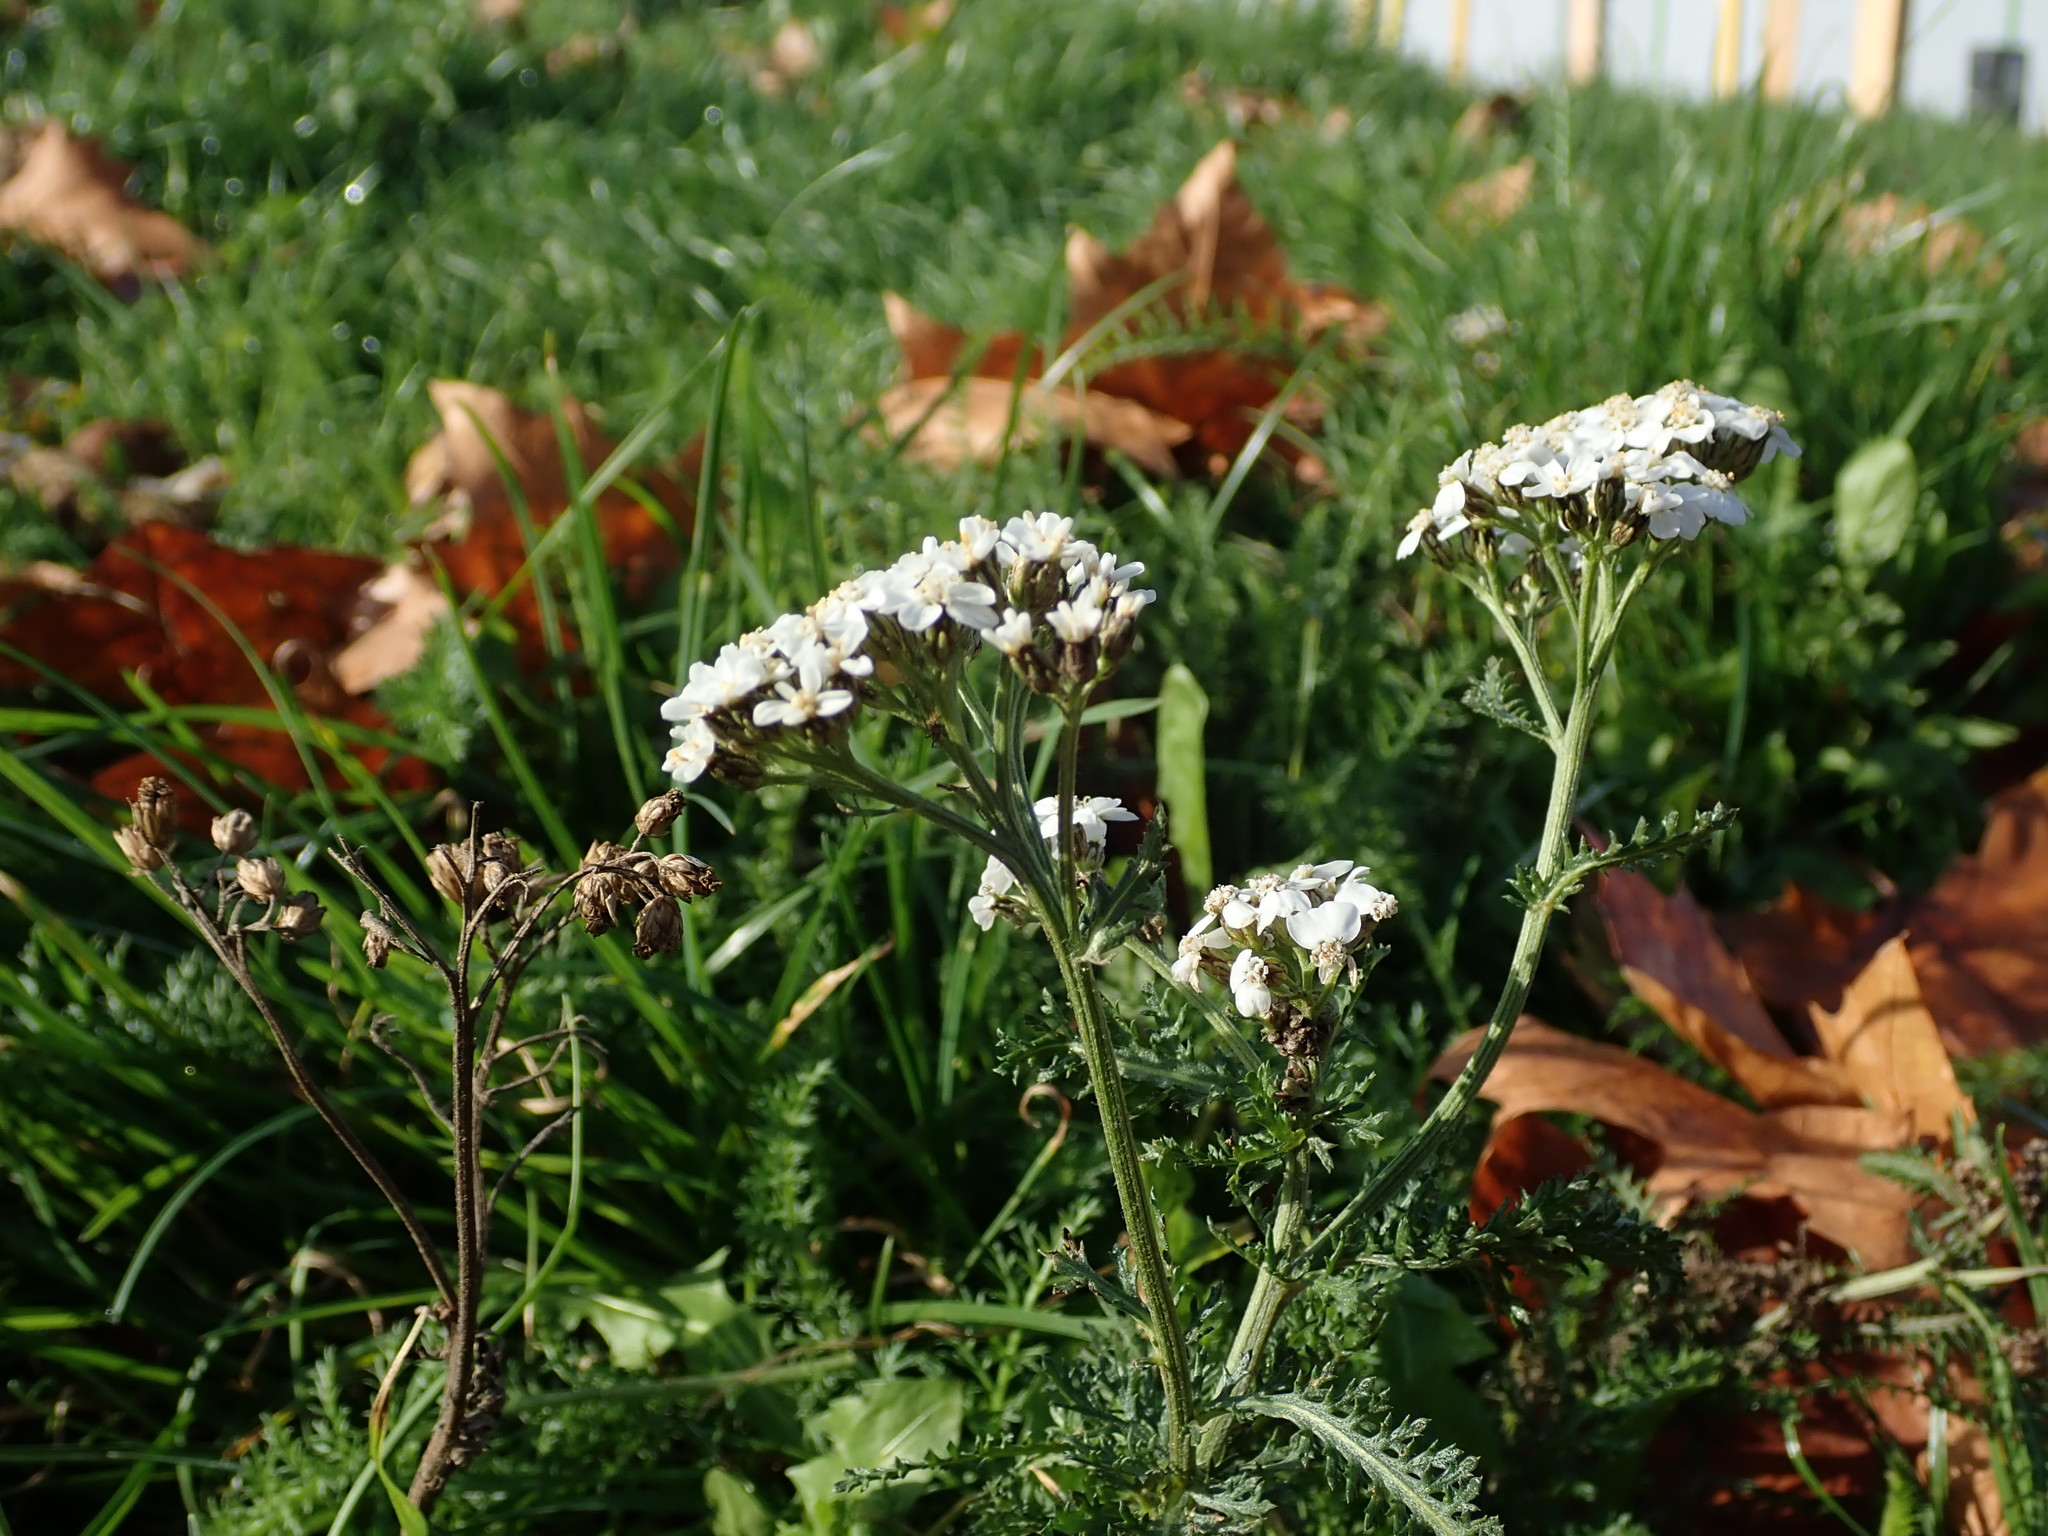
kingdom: Plantae
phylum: Tracheophyta
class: Magnoliopsida
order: Asterales
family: Asteraceae
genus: Achillea
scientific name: Achillea millefolium
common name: Yarrow
